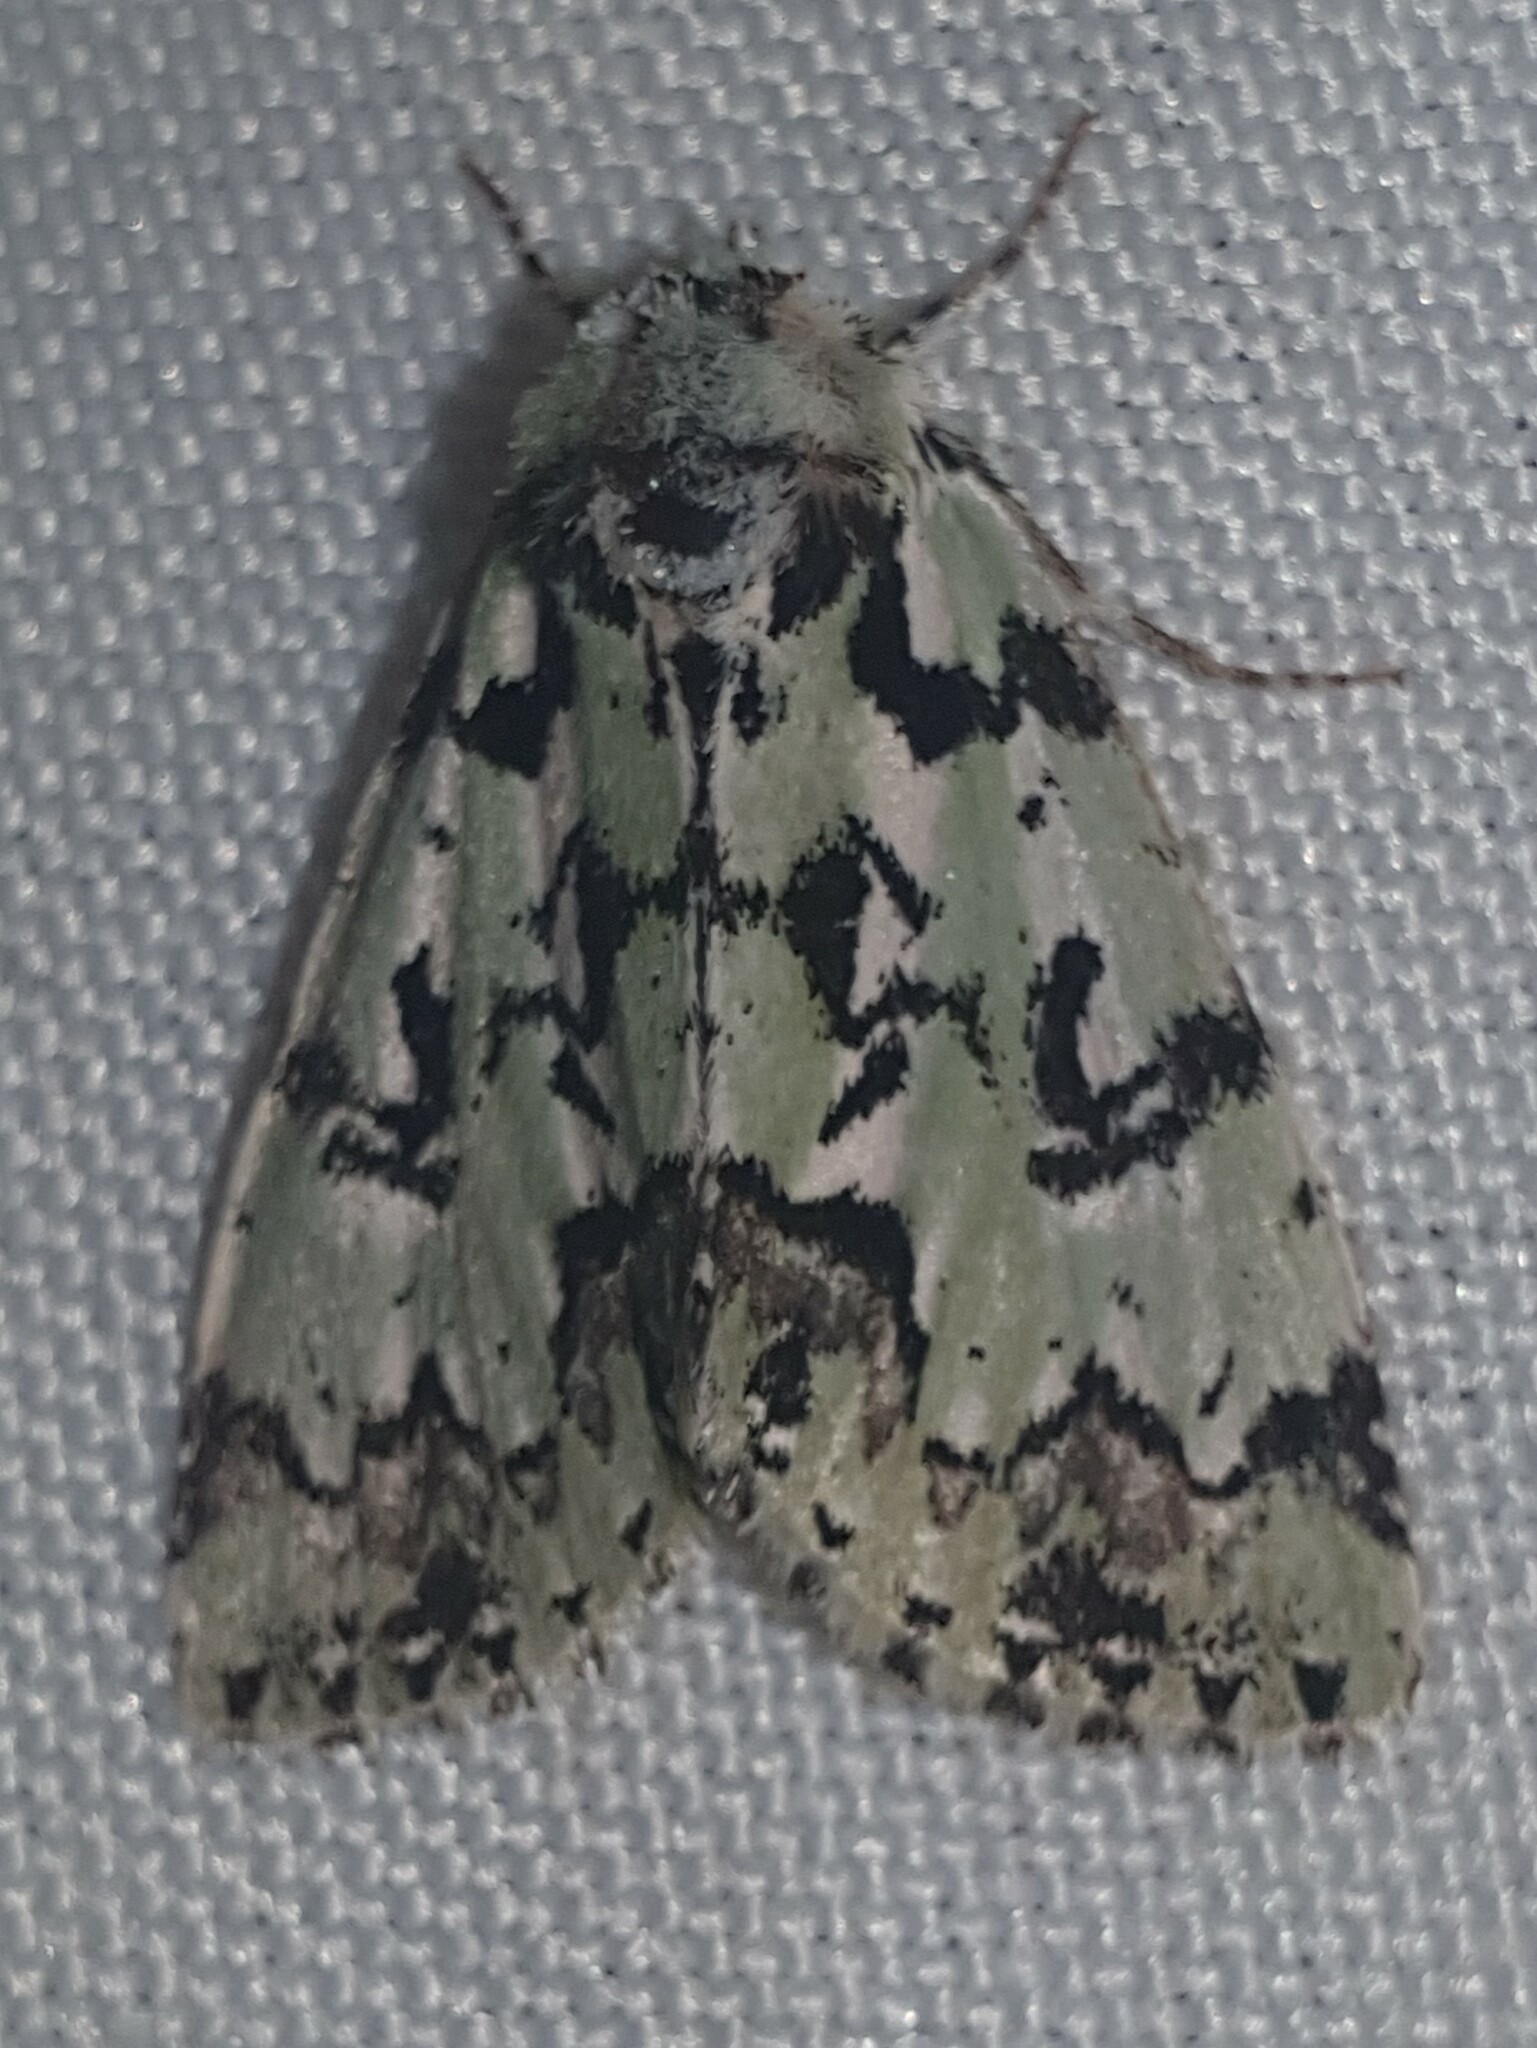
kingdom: Animalia
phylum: Arthropoda
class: Insecta
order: Lepidoptera
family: Noctuidae
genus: Moma
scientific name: Moma alpium
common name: Scarce merveille du jour
